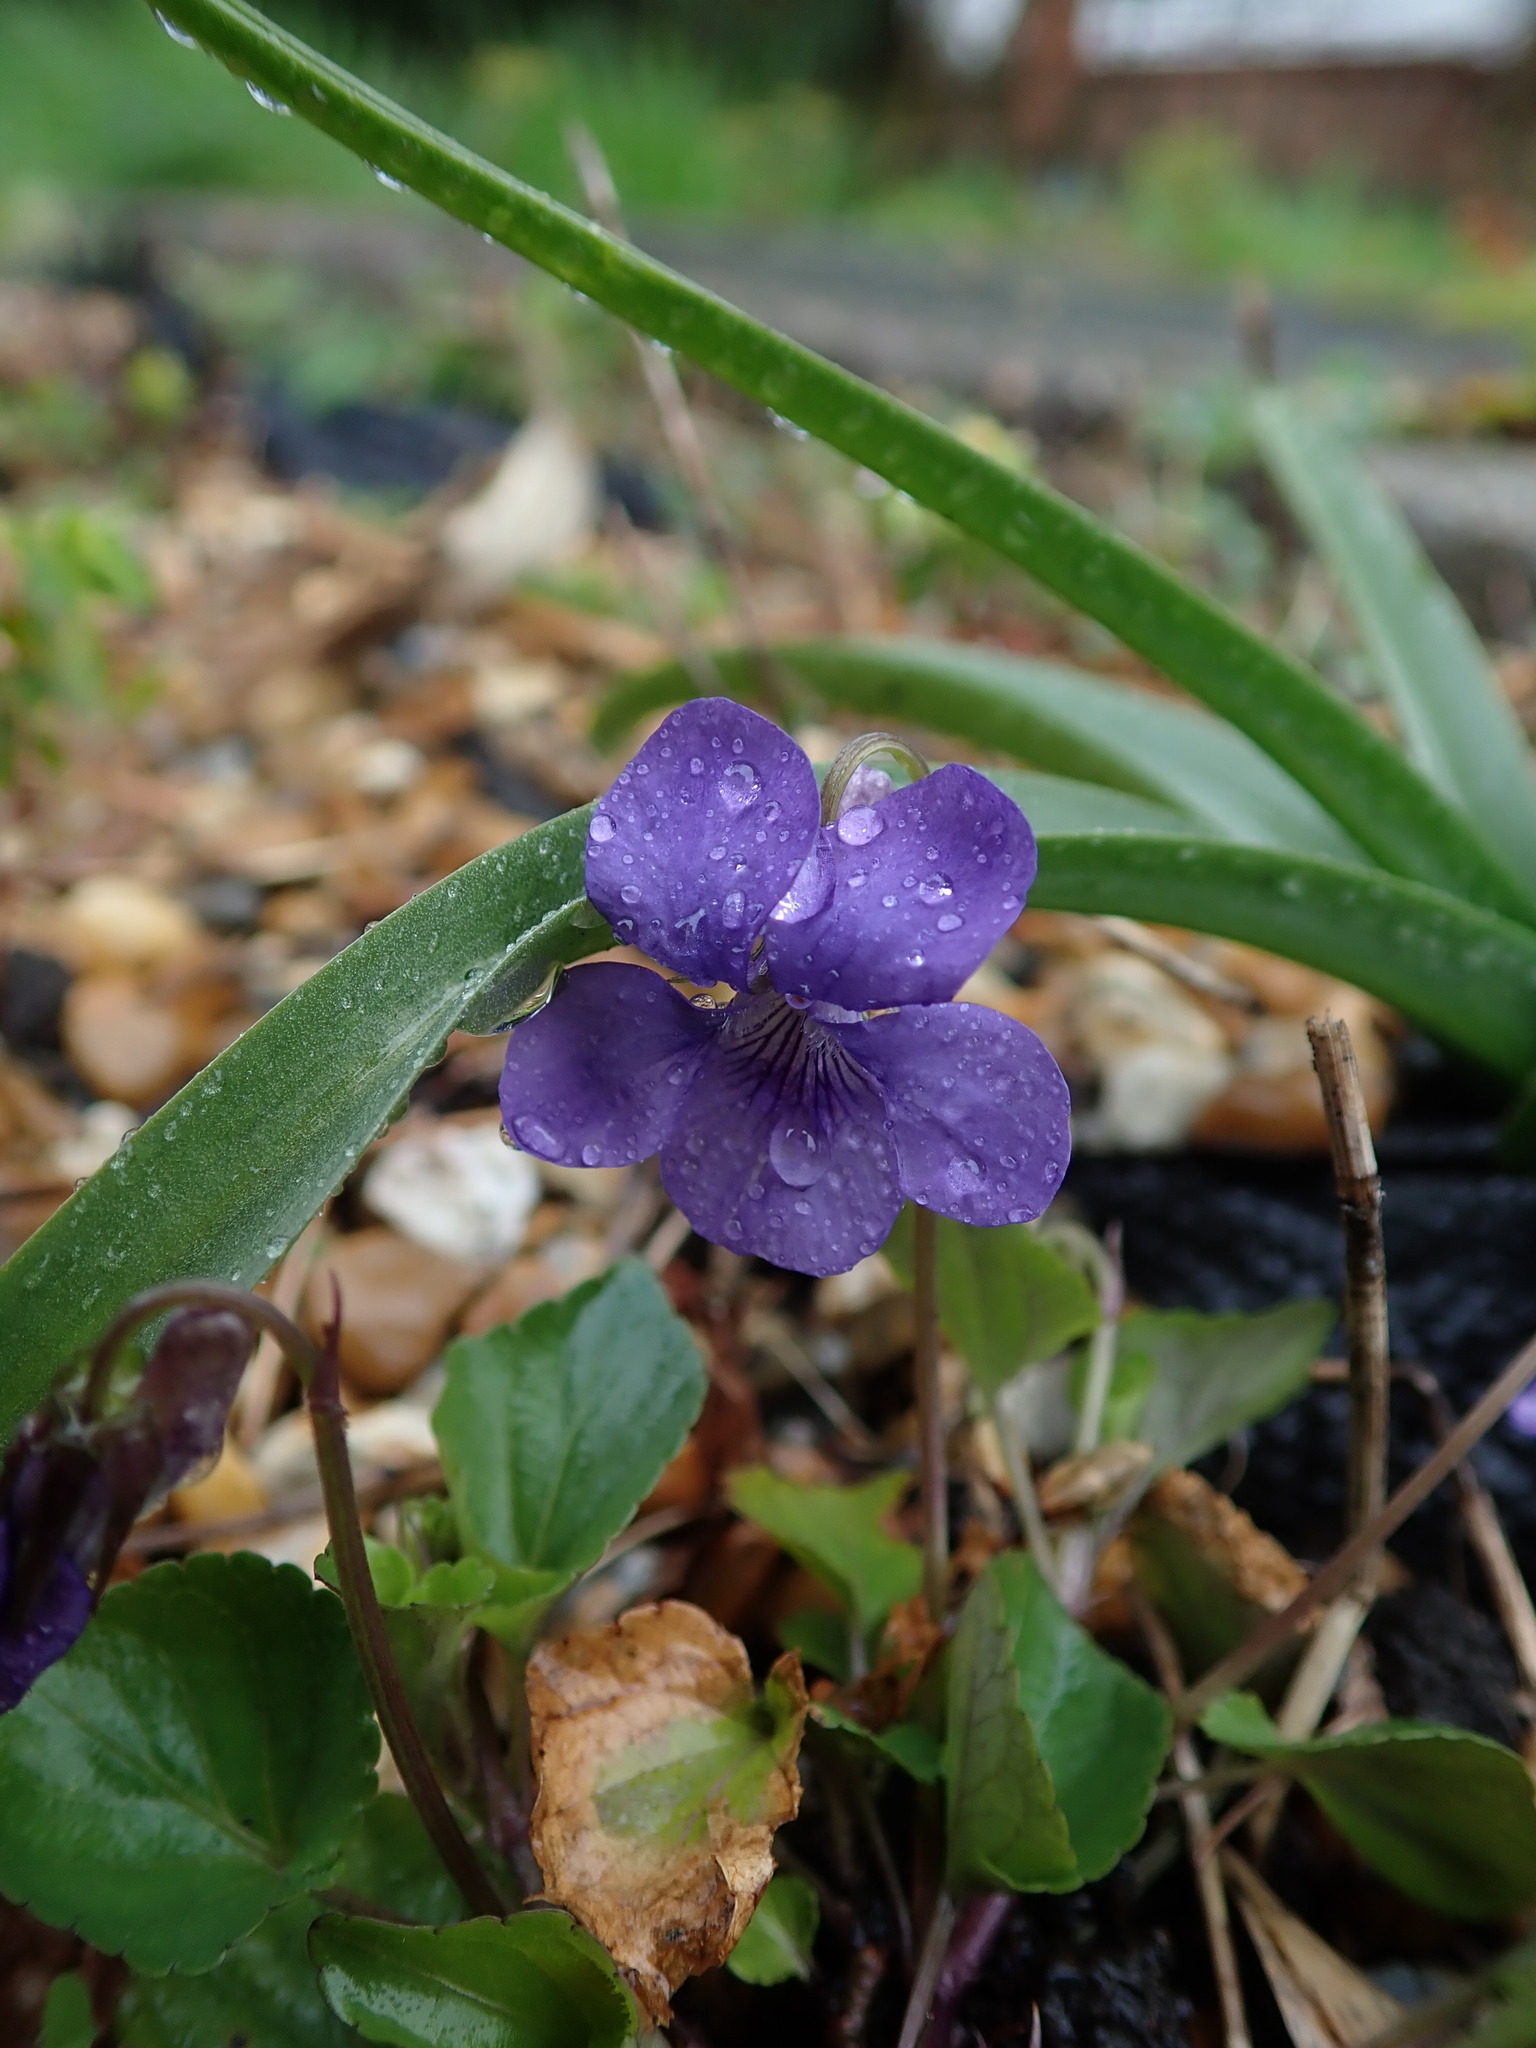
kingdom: Plantae
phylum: Tracheophyta
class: Magnoliopsida
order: Malpighiales
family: Violaceae
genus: Viola
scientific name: Viola riviniana
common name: Common dog-violet
